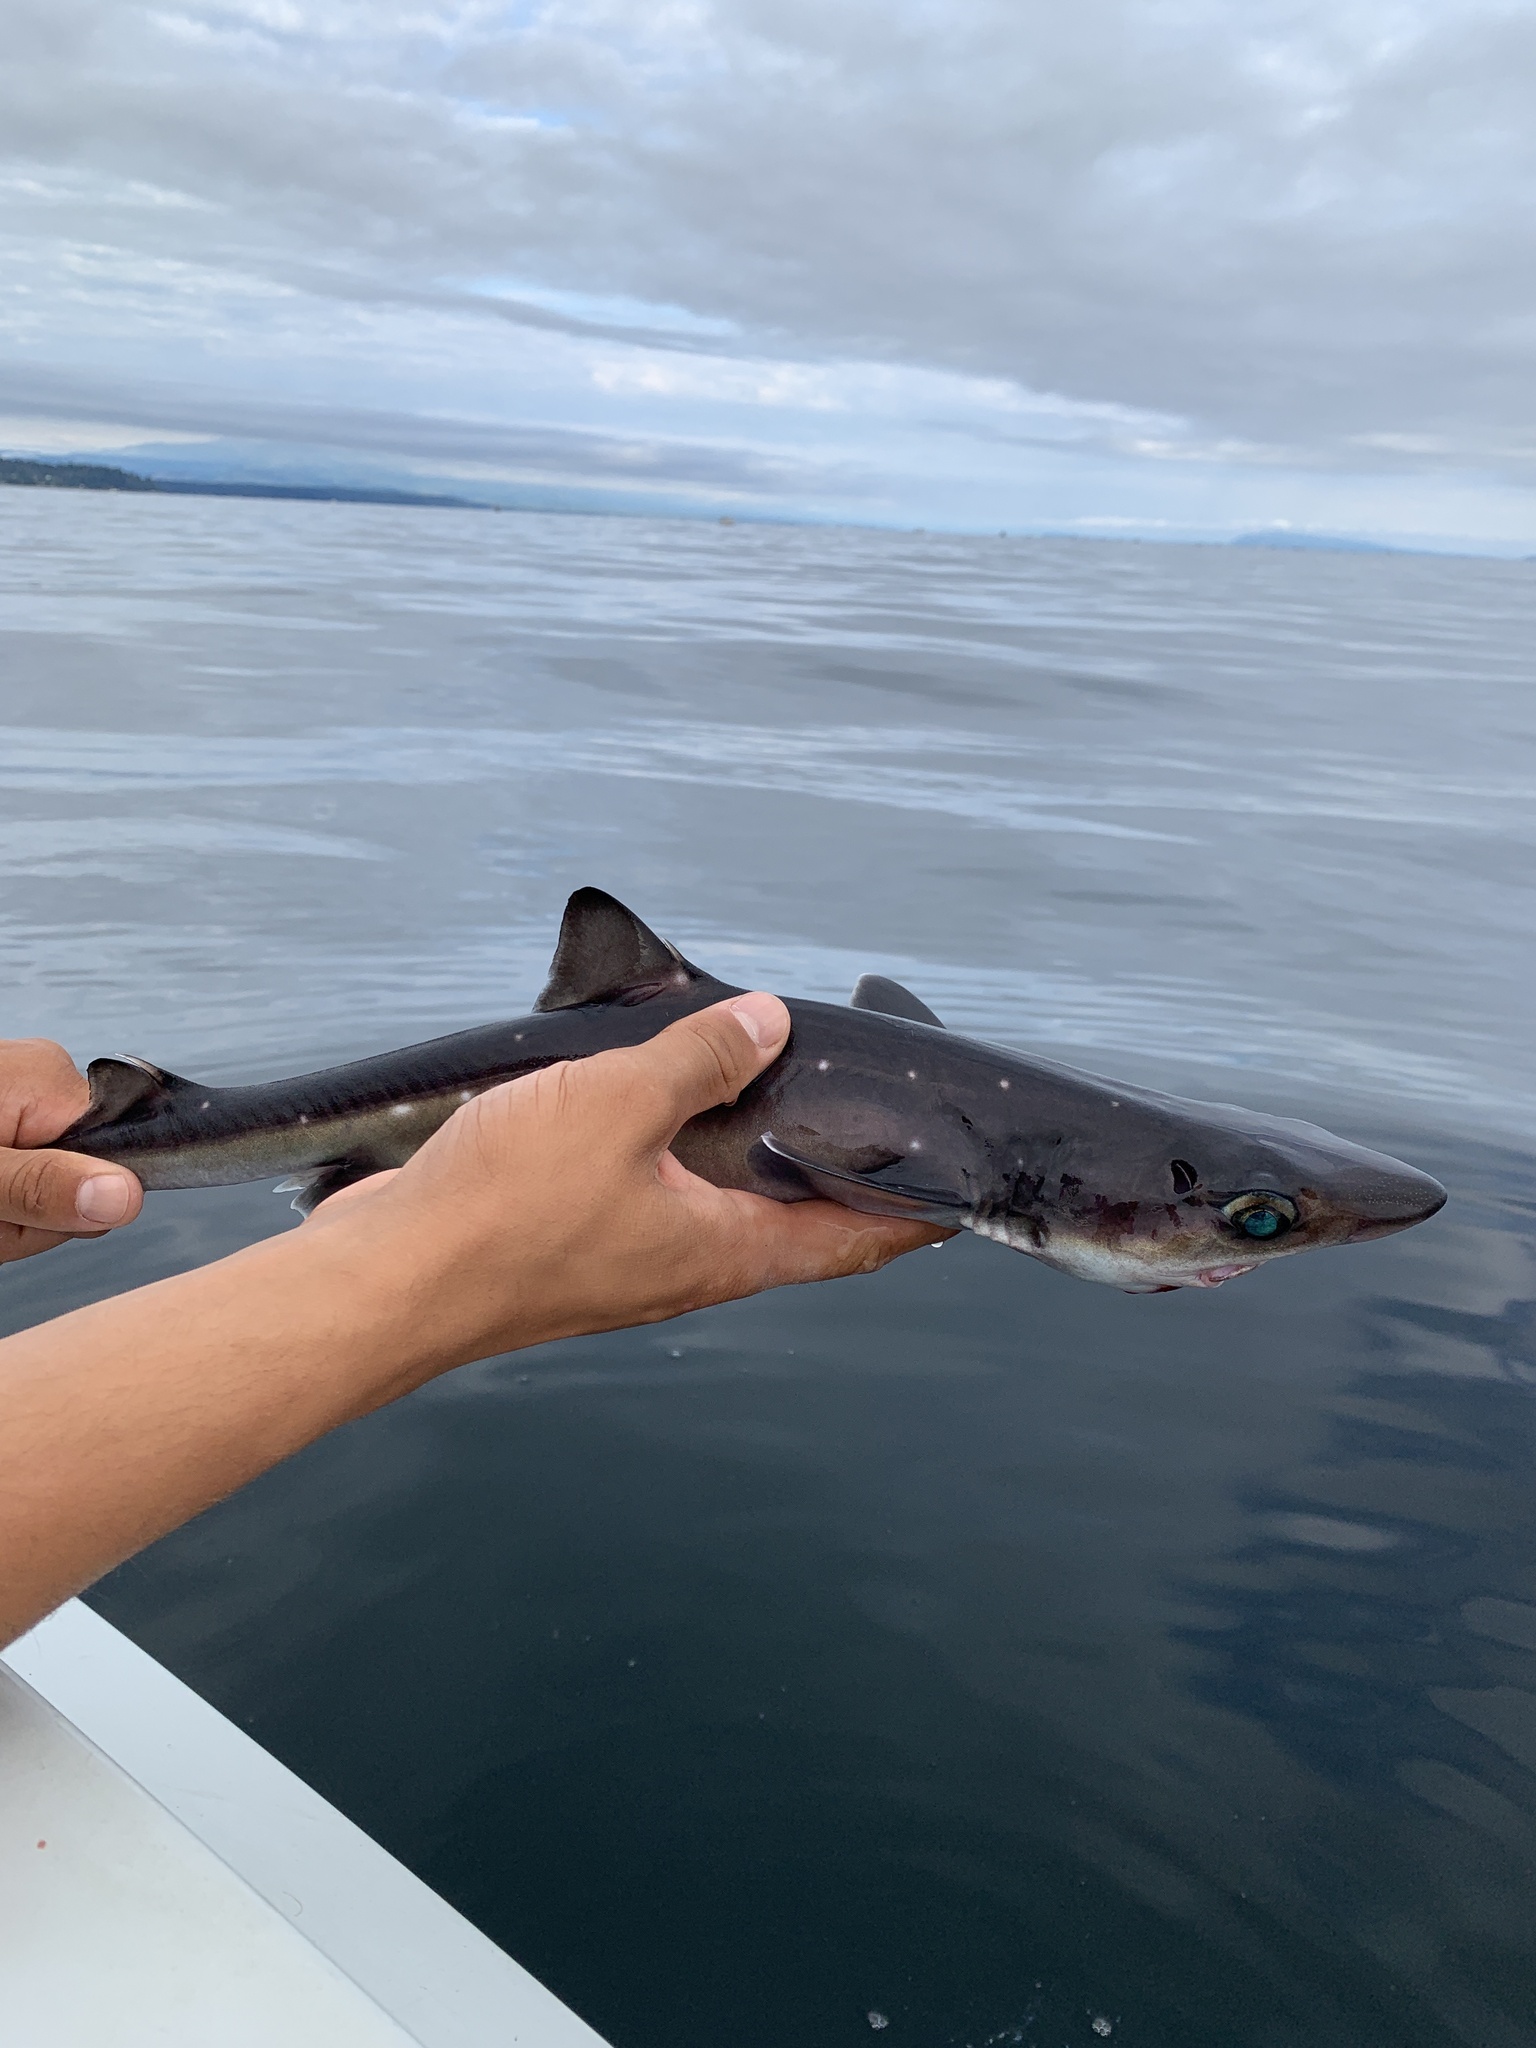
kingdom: Animalia
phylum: Chordata
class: Elasmobranchii
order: Squaliformes
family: Squalidae
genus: Squalus
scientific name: Squalus suckleyi
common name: Spiny dogfish
